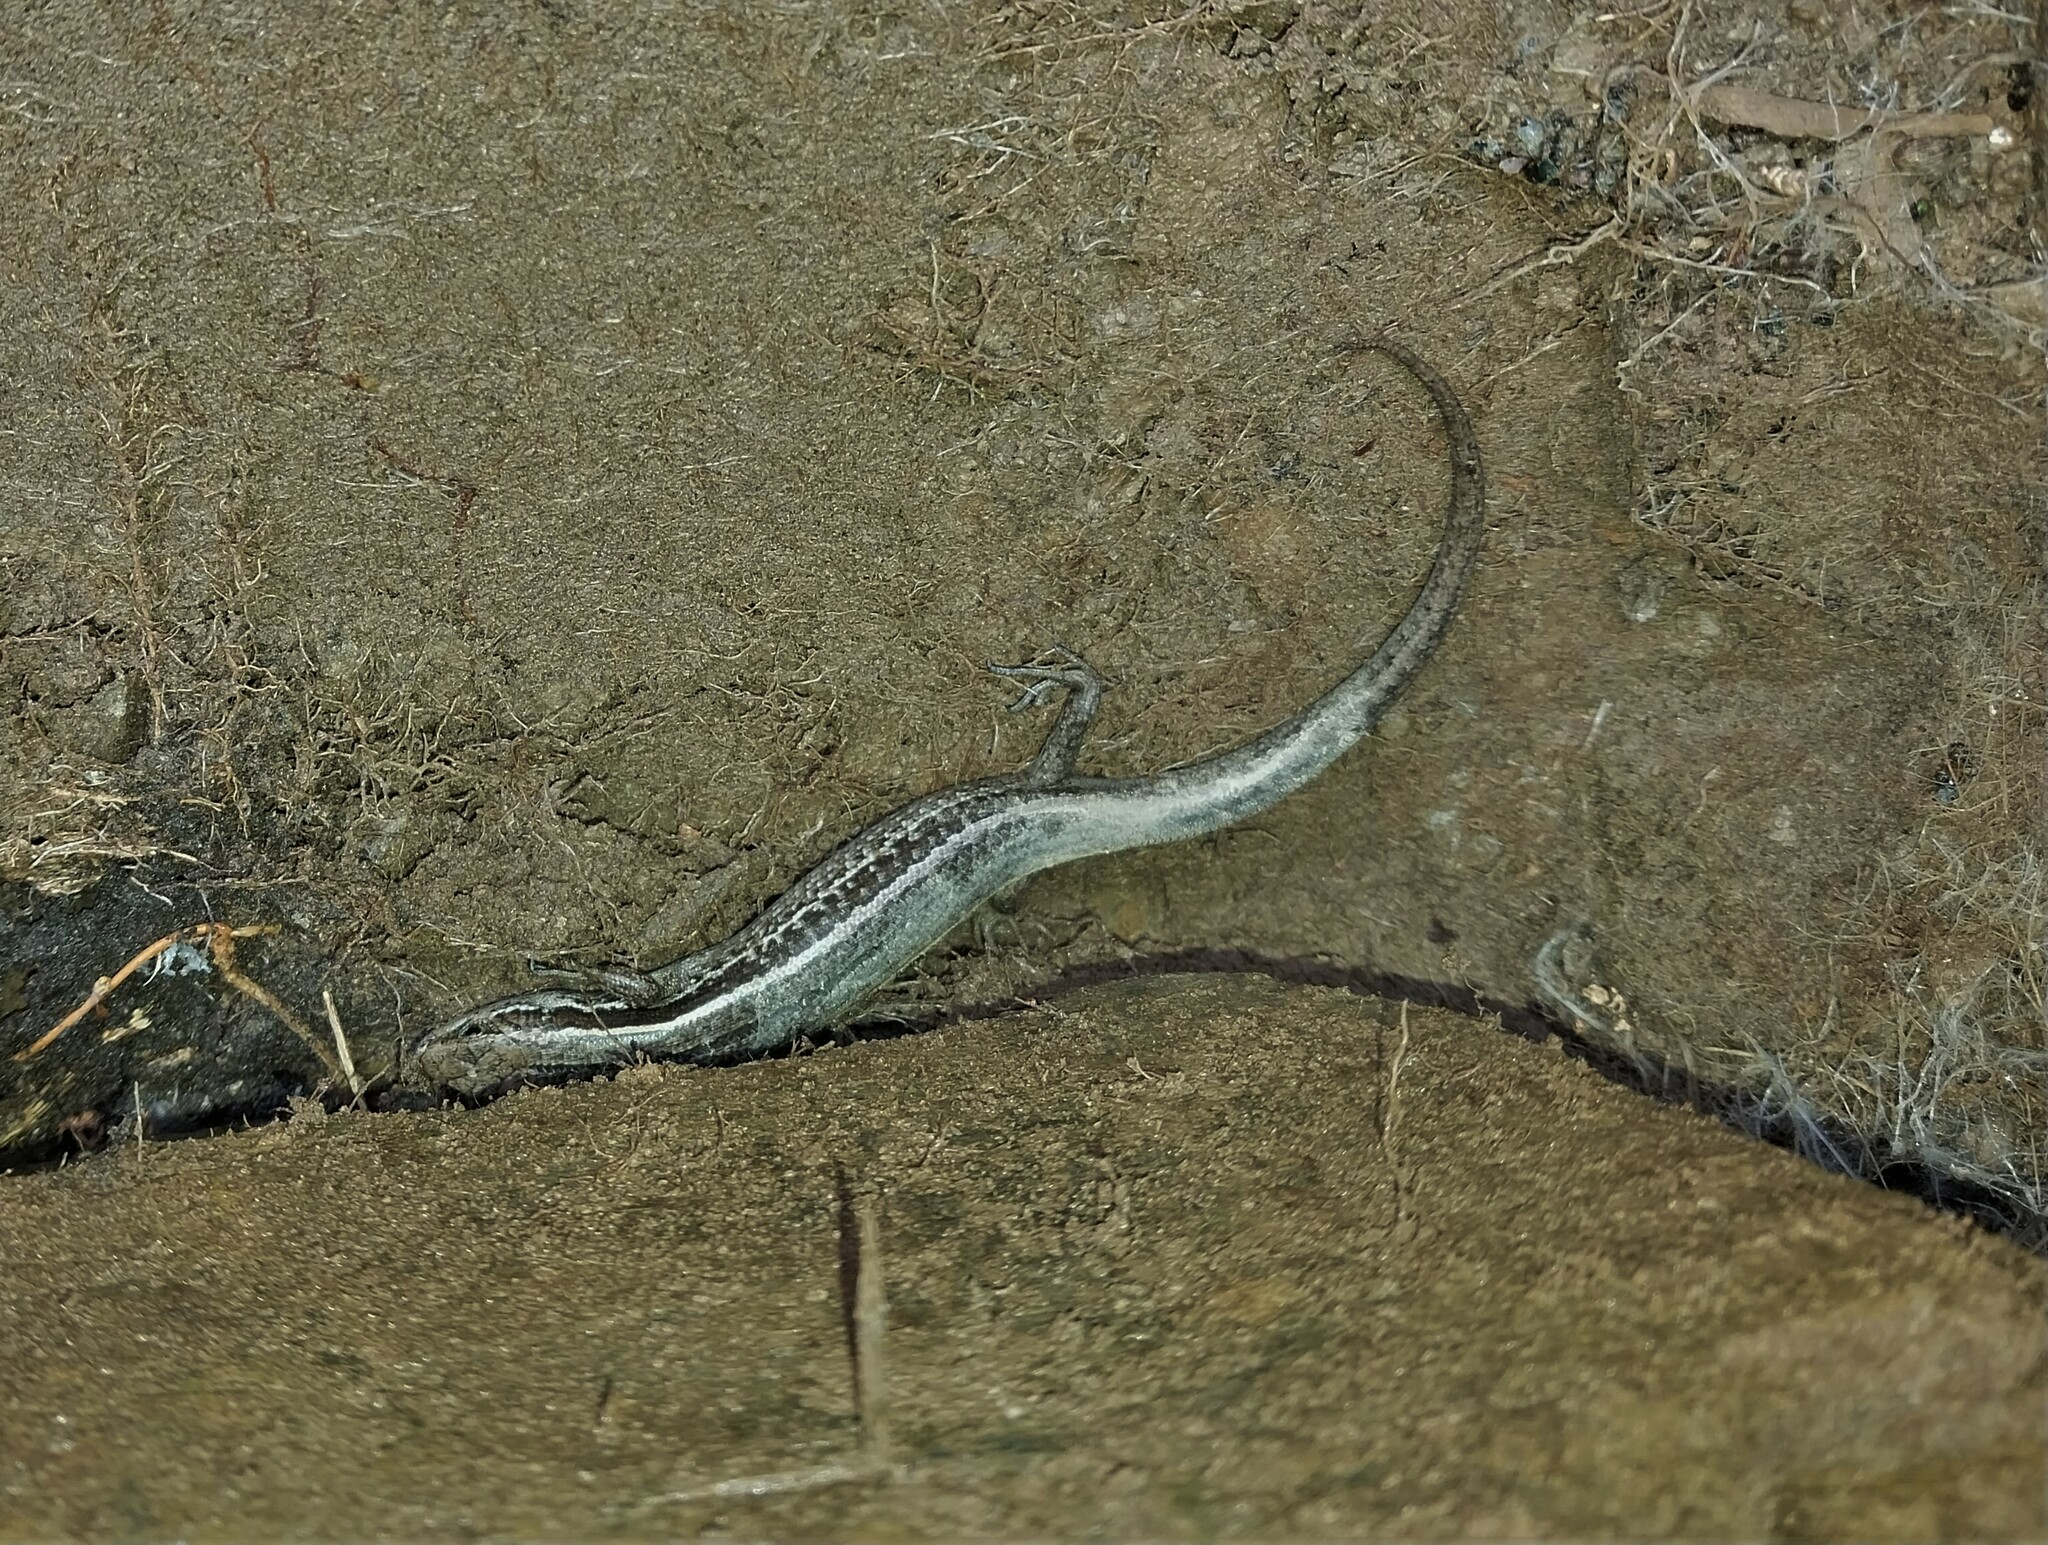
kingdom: Animalia
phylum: Chordata
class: Squamata
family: Scincidae
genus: Oligosoma
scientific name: Oligosoma maccanni
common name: Mccann’s skink
